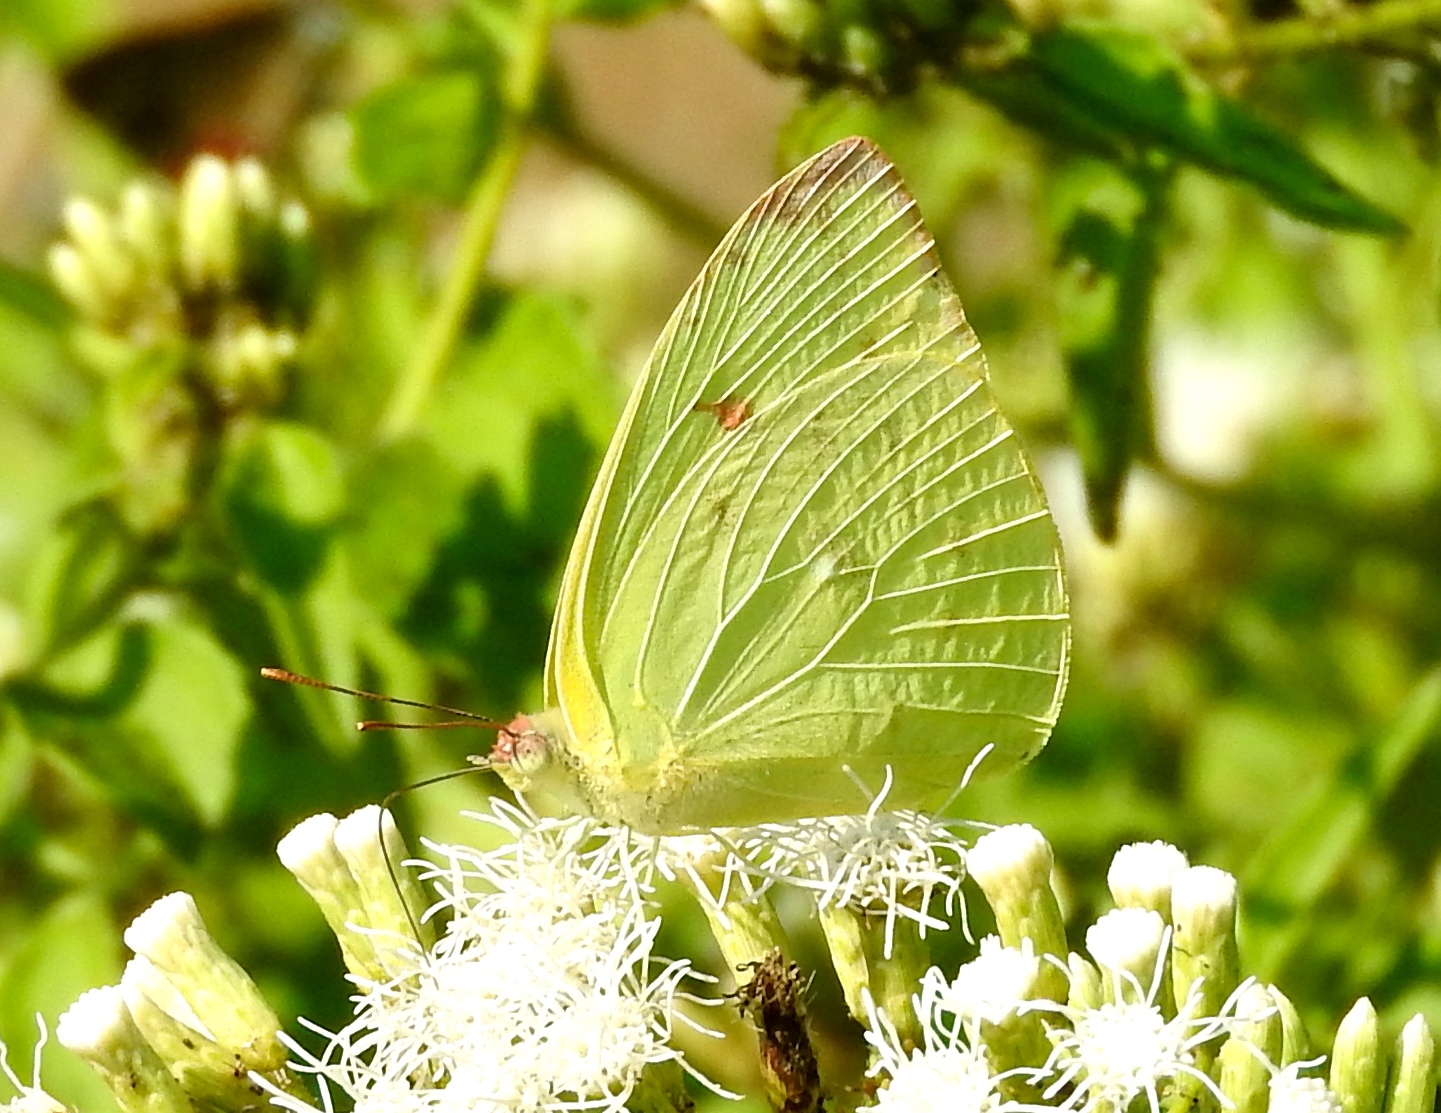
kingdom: Animalia
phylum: Arthropoda
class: Insecta
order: Lepidoptera
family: Pieridae
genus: Aphrissa
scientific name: Aphrissa statira
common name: Statira sulphur
